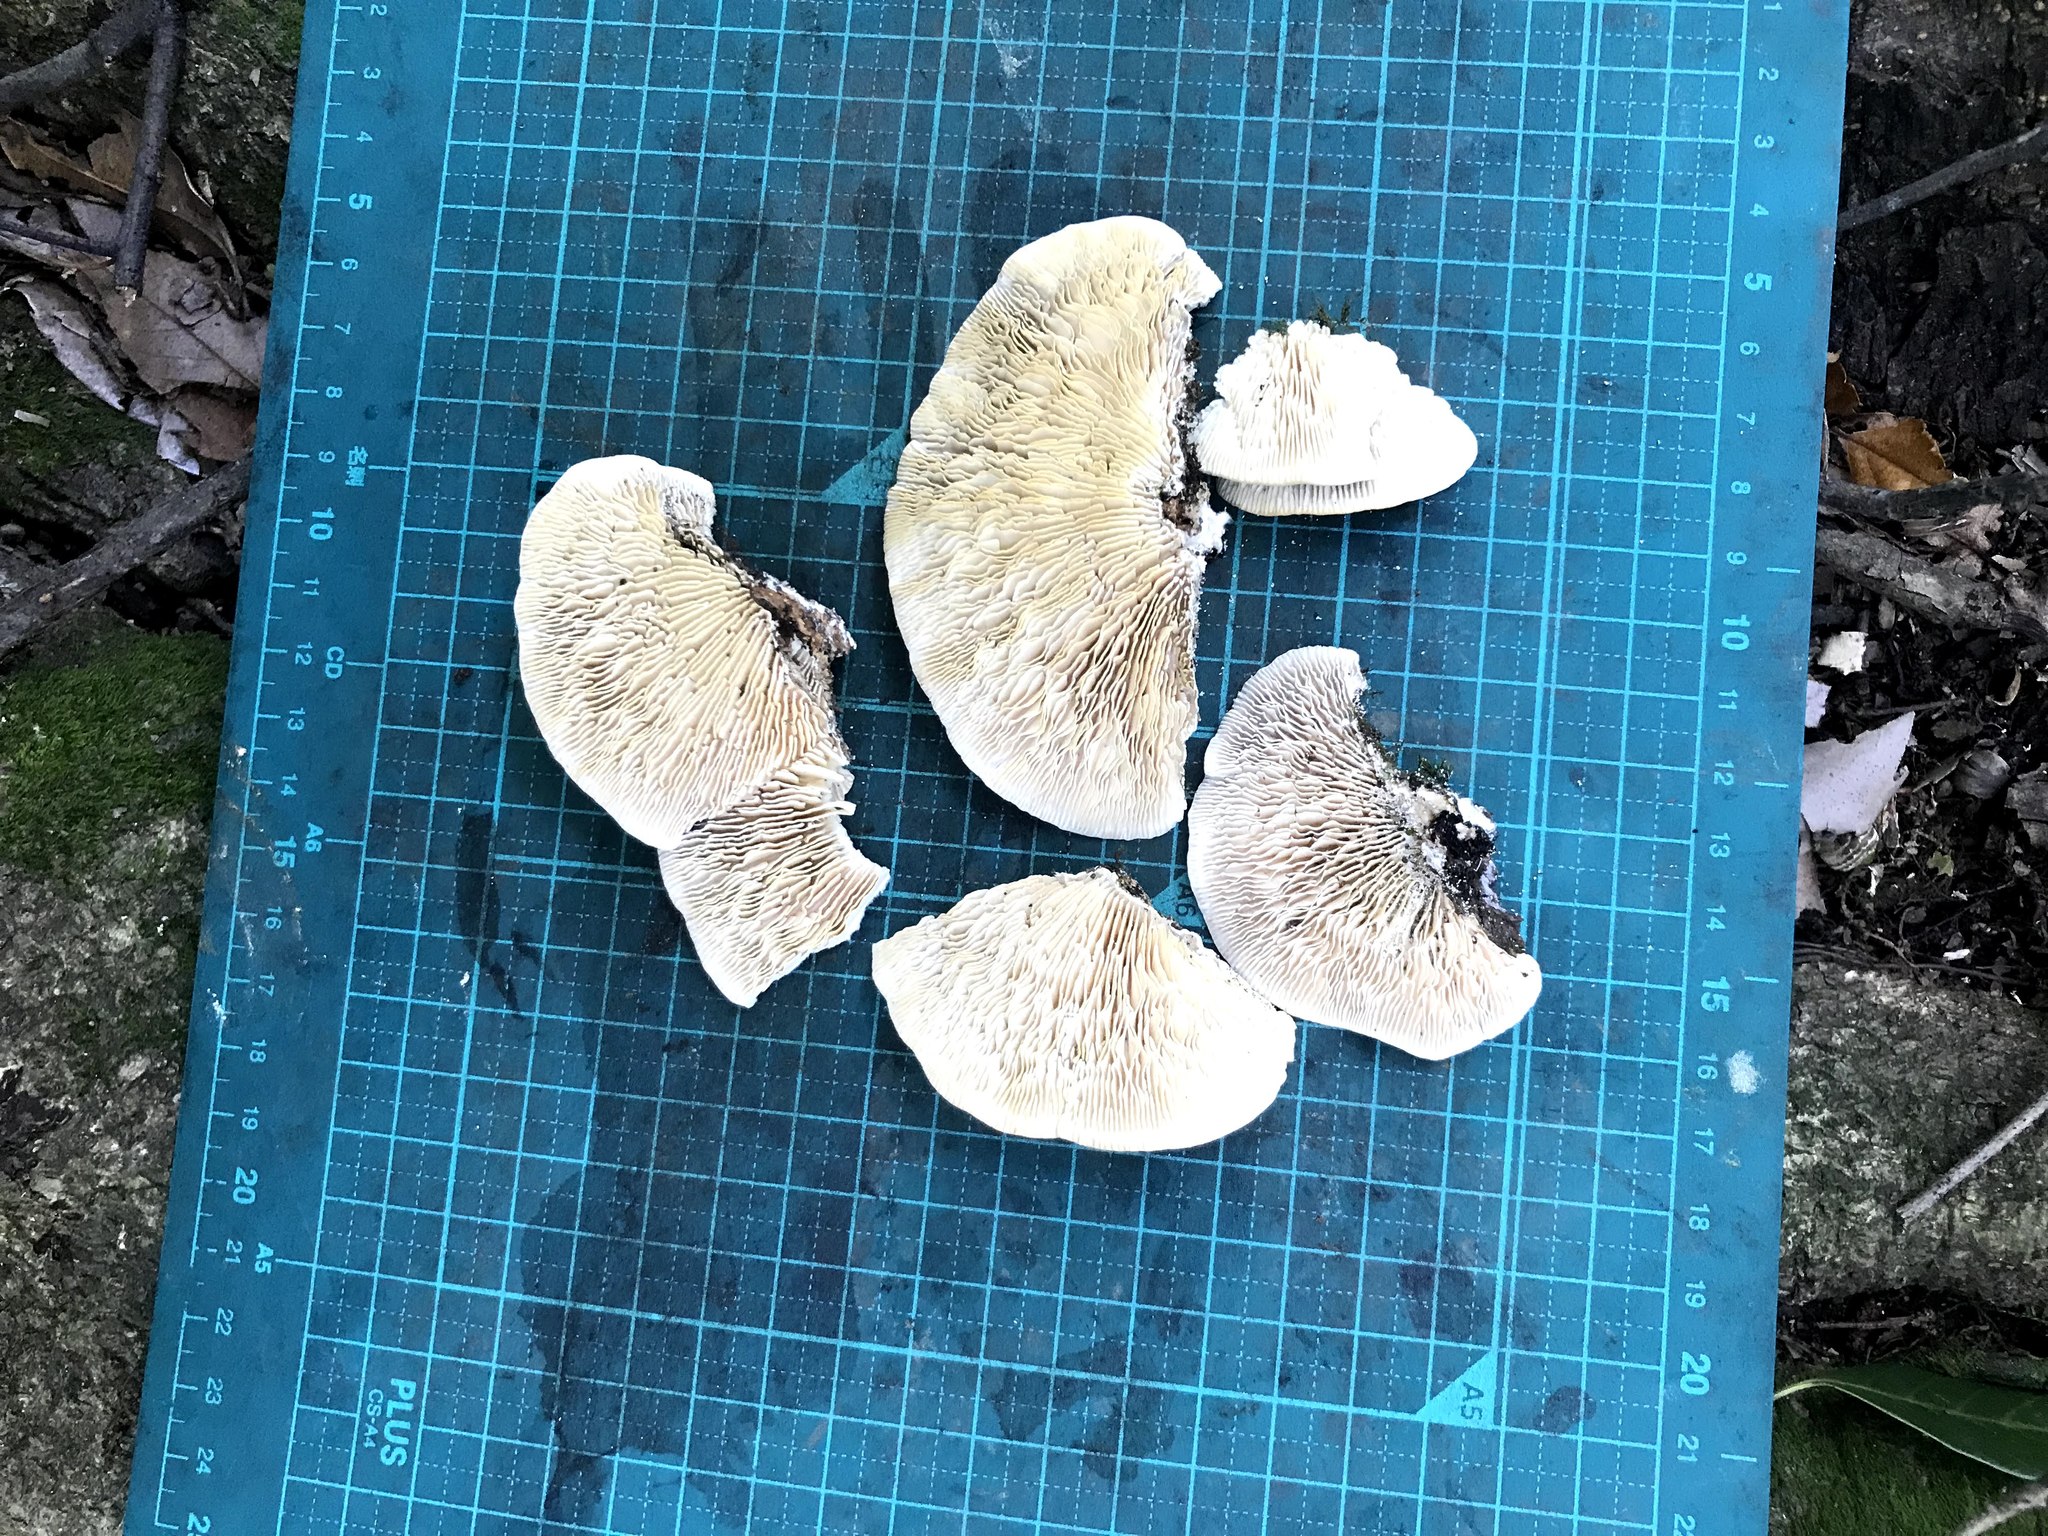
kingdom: Fungi
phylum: Basidiomycota
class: Agaricomycetes
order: Polyporales
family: Polyporaceae
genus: Lenzites
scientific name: Lenzites betulinus
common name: Birch mazegill
